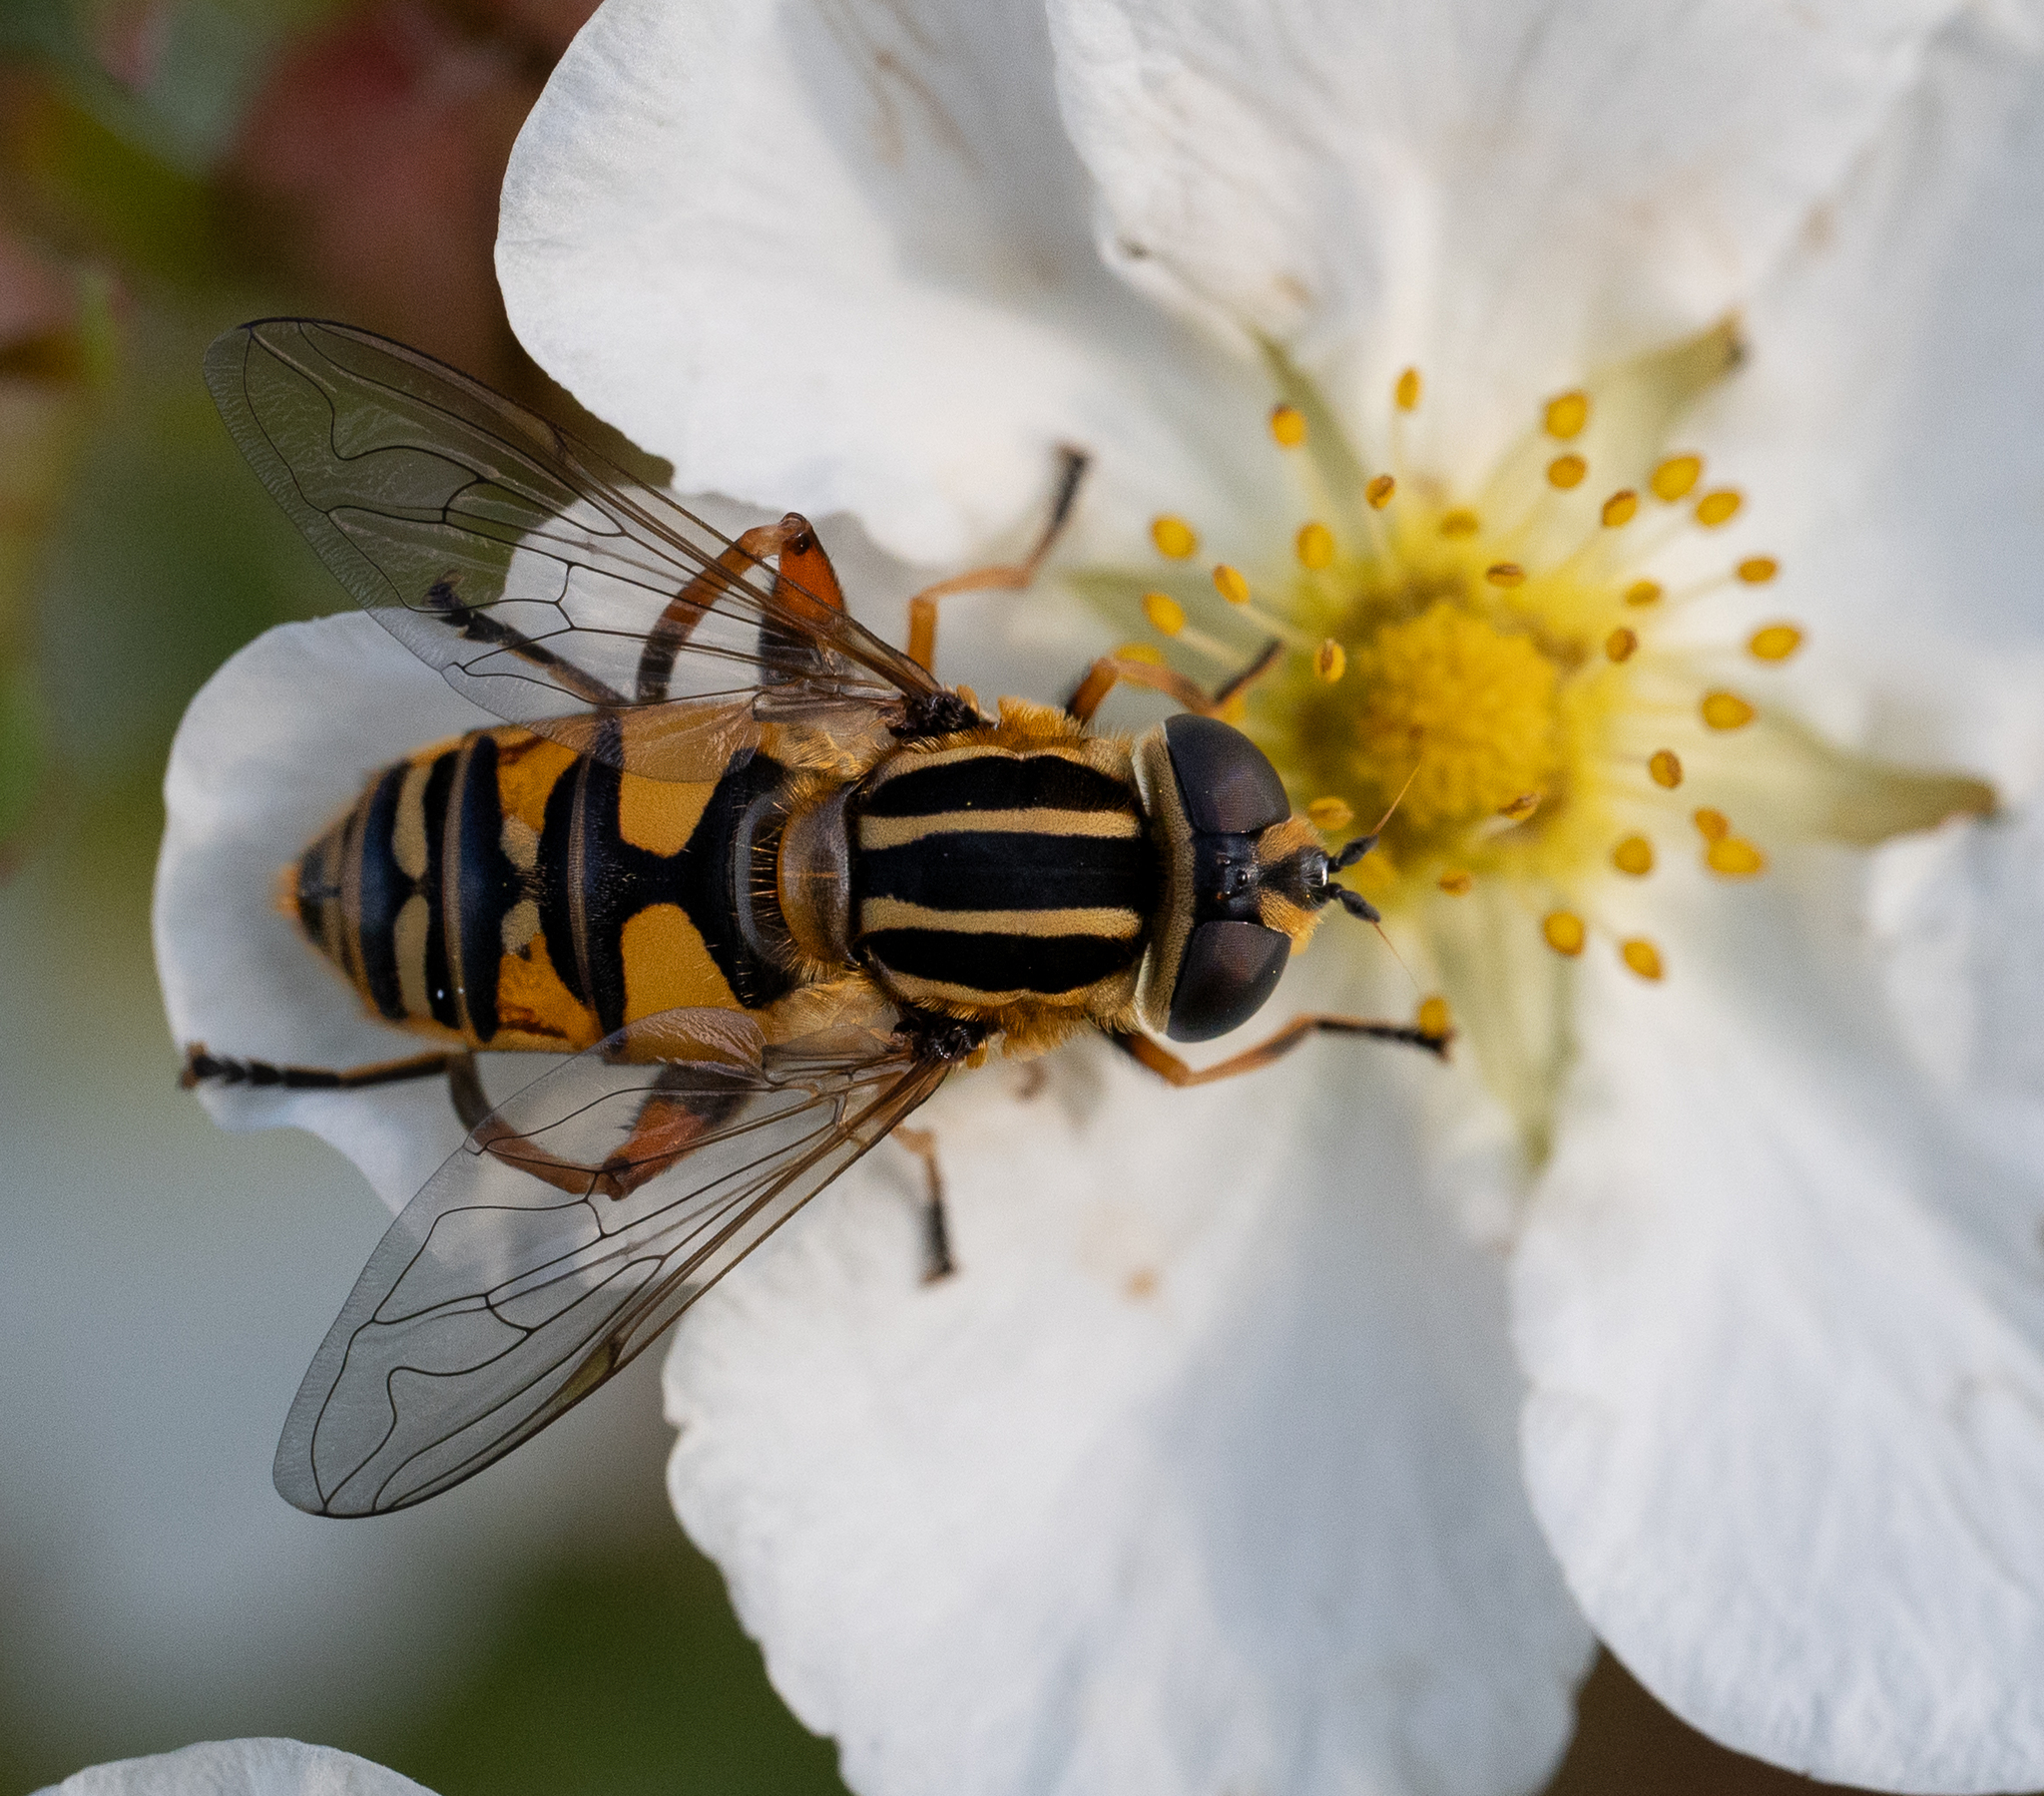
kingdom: Animalia
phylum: Arthropoda
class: Insecta
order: Diptera
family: Syrphidae
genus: Helophilus
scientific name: Helophilus pendulus
